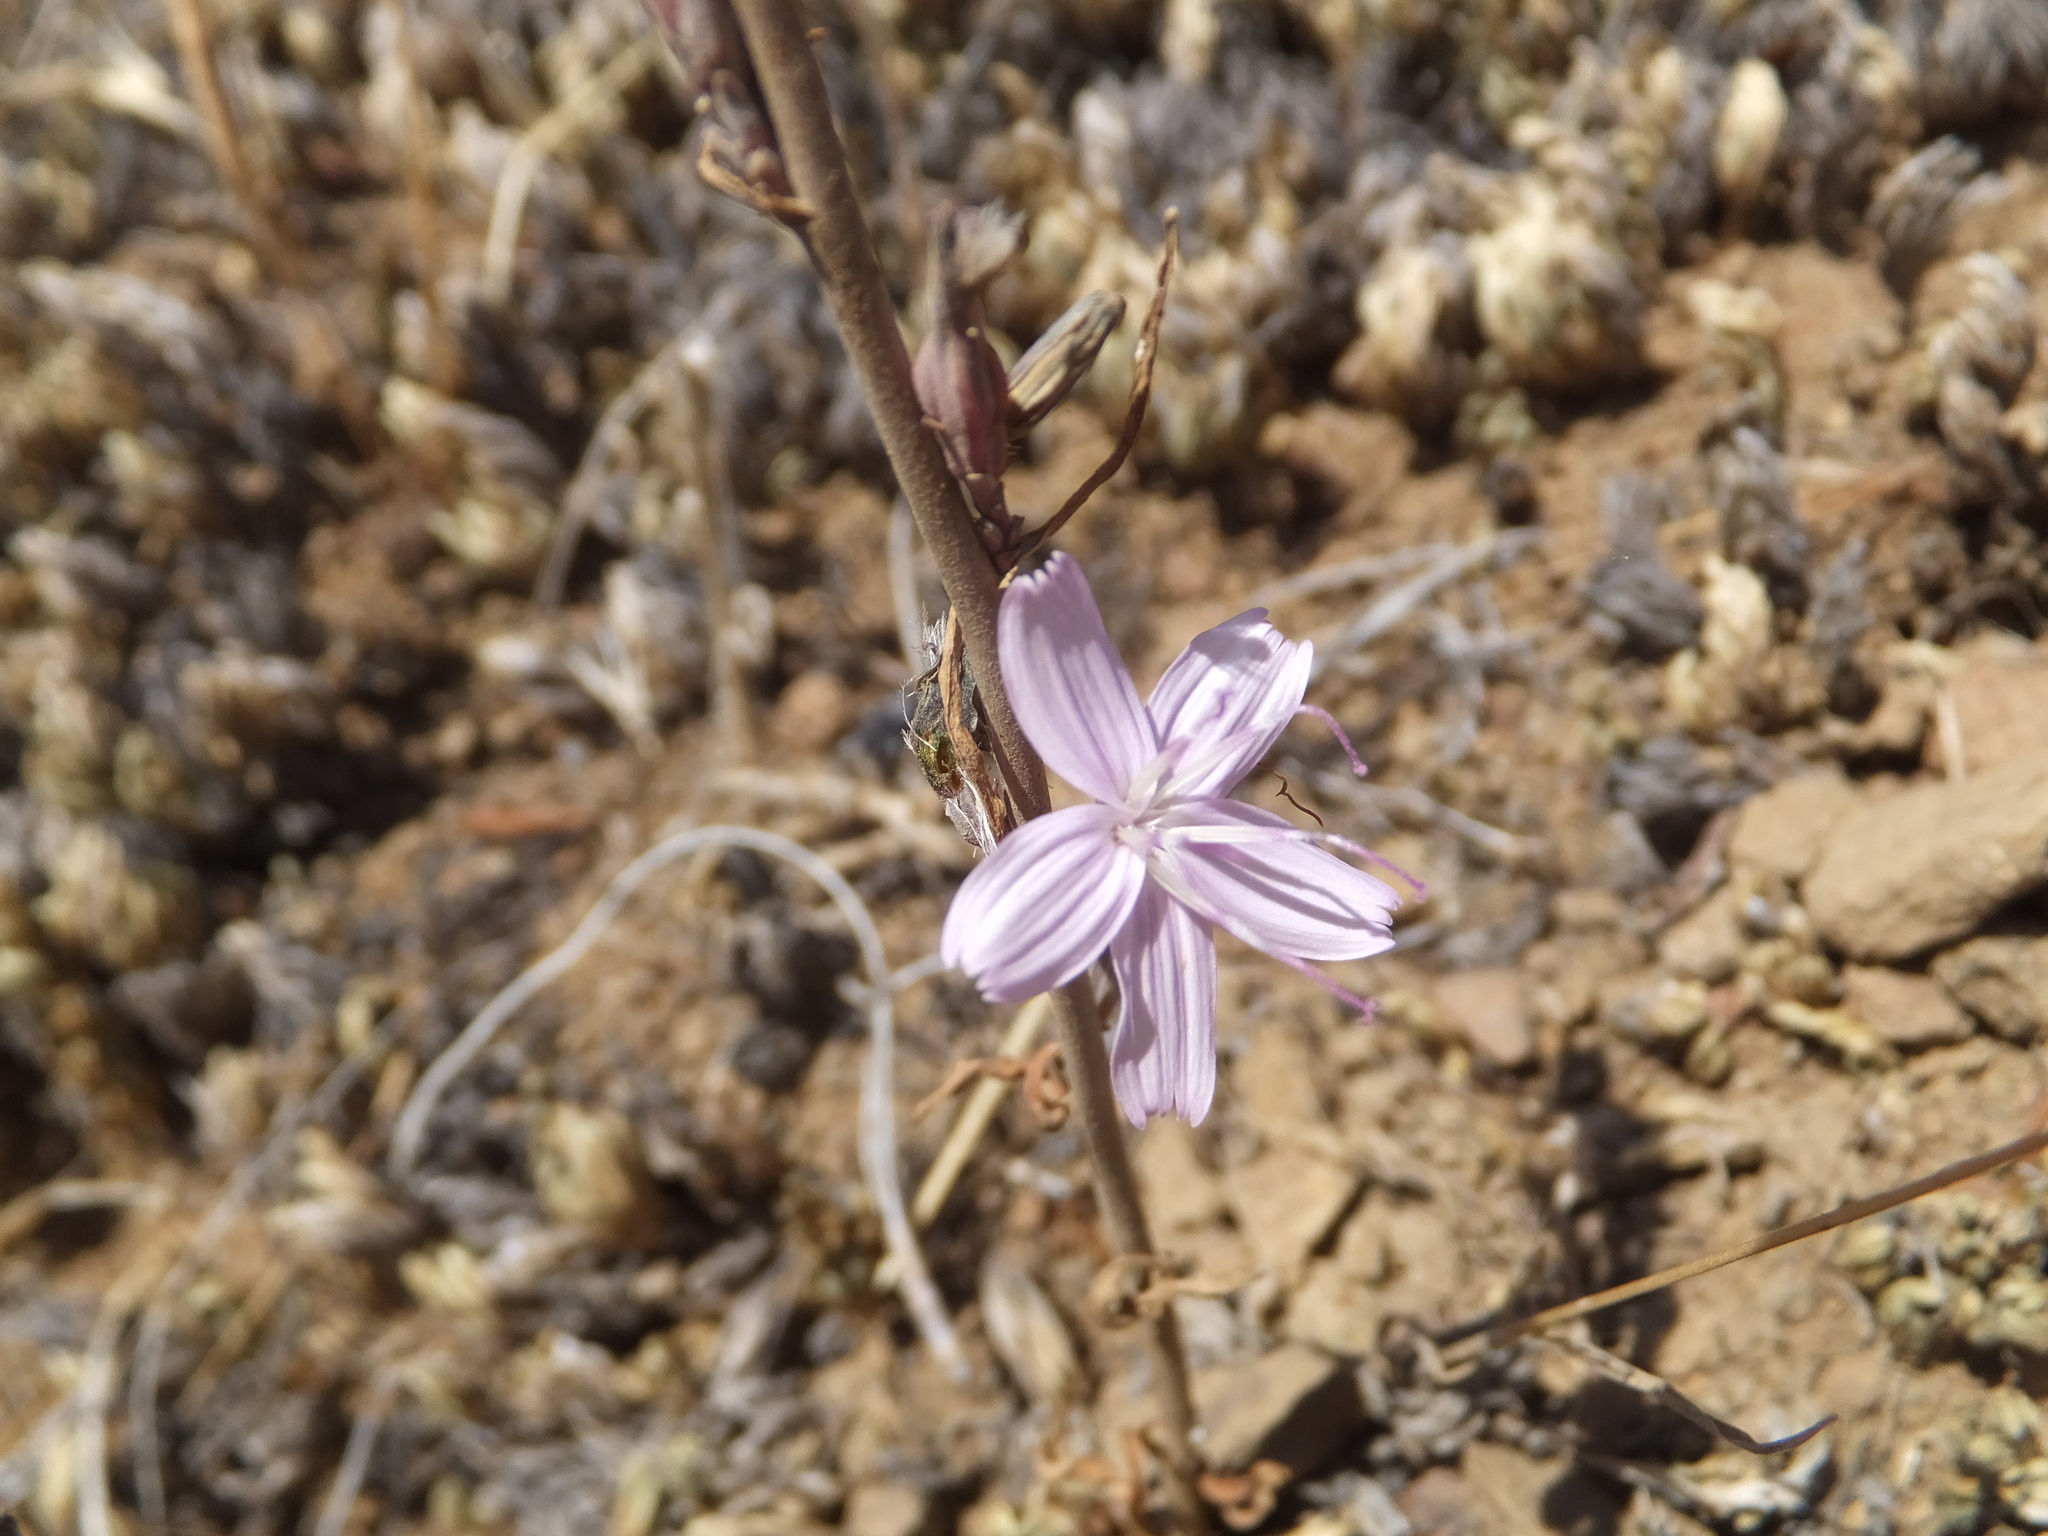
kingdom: Plantae
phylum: Tracheophyta
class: Magnoliopsida
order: Asterales
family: Asteraceae
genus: Stephanomeria
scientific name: Stephanomeria virgata
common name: Virgate wirelettuce
